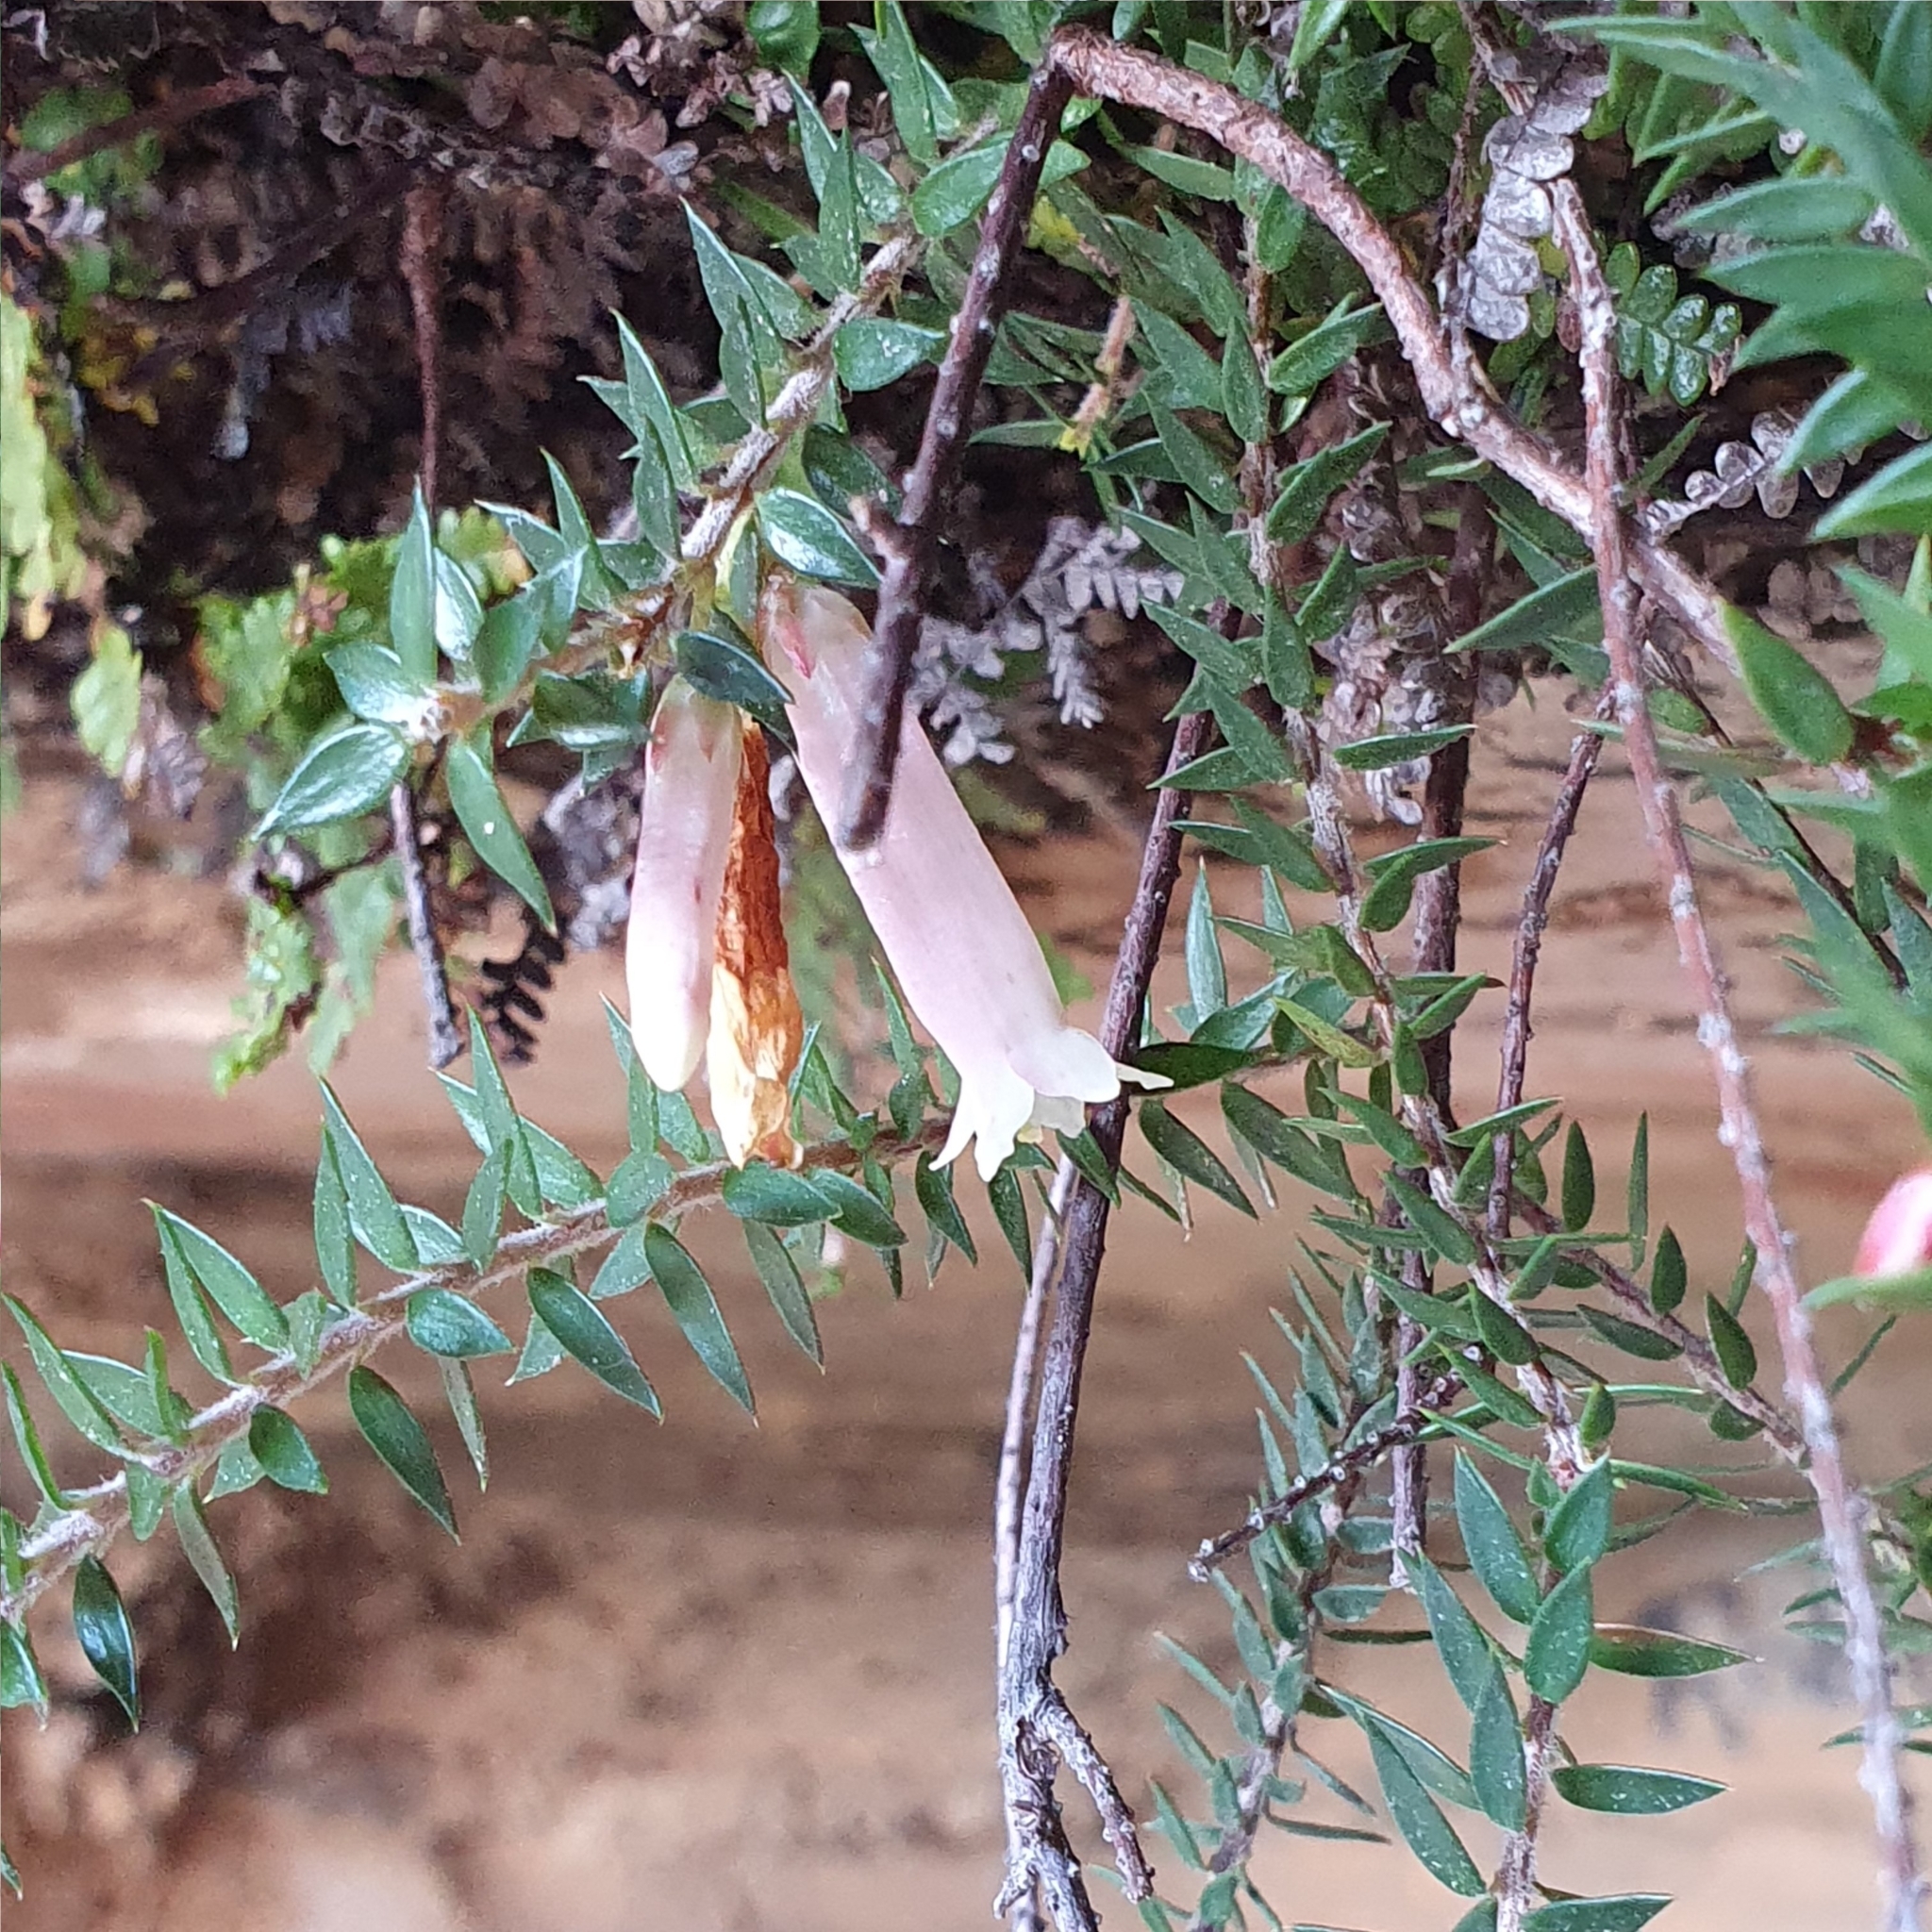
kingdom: Plantae
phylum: Tracheophyta
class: Magnoliopsida
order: Ericales
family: Ericaceae
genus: Epacris
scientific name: Epacris reclinata
